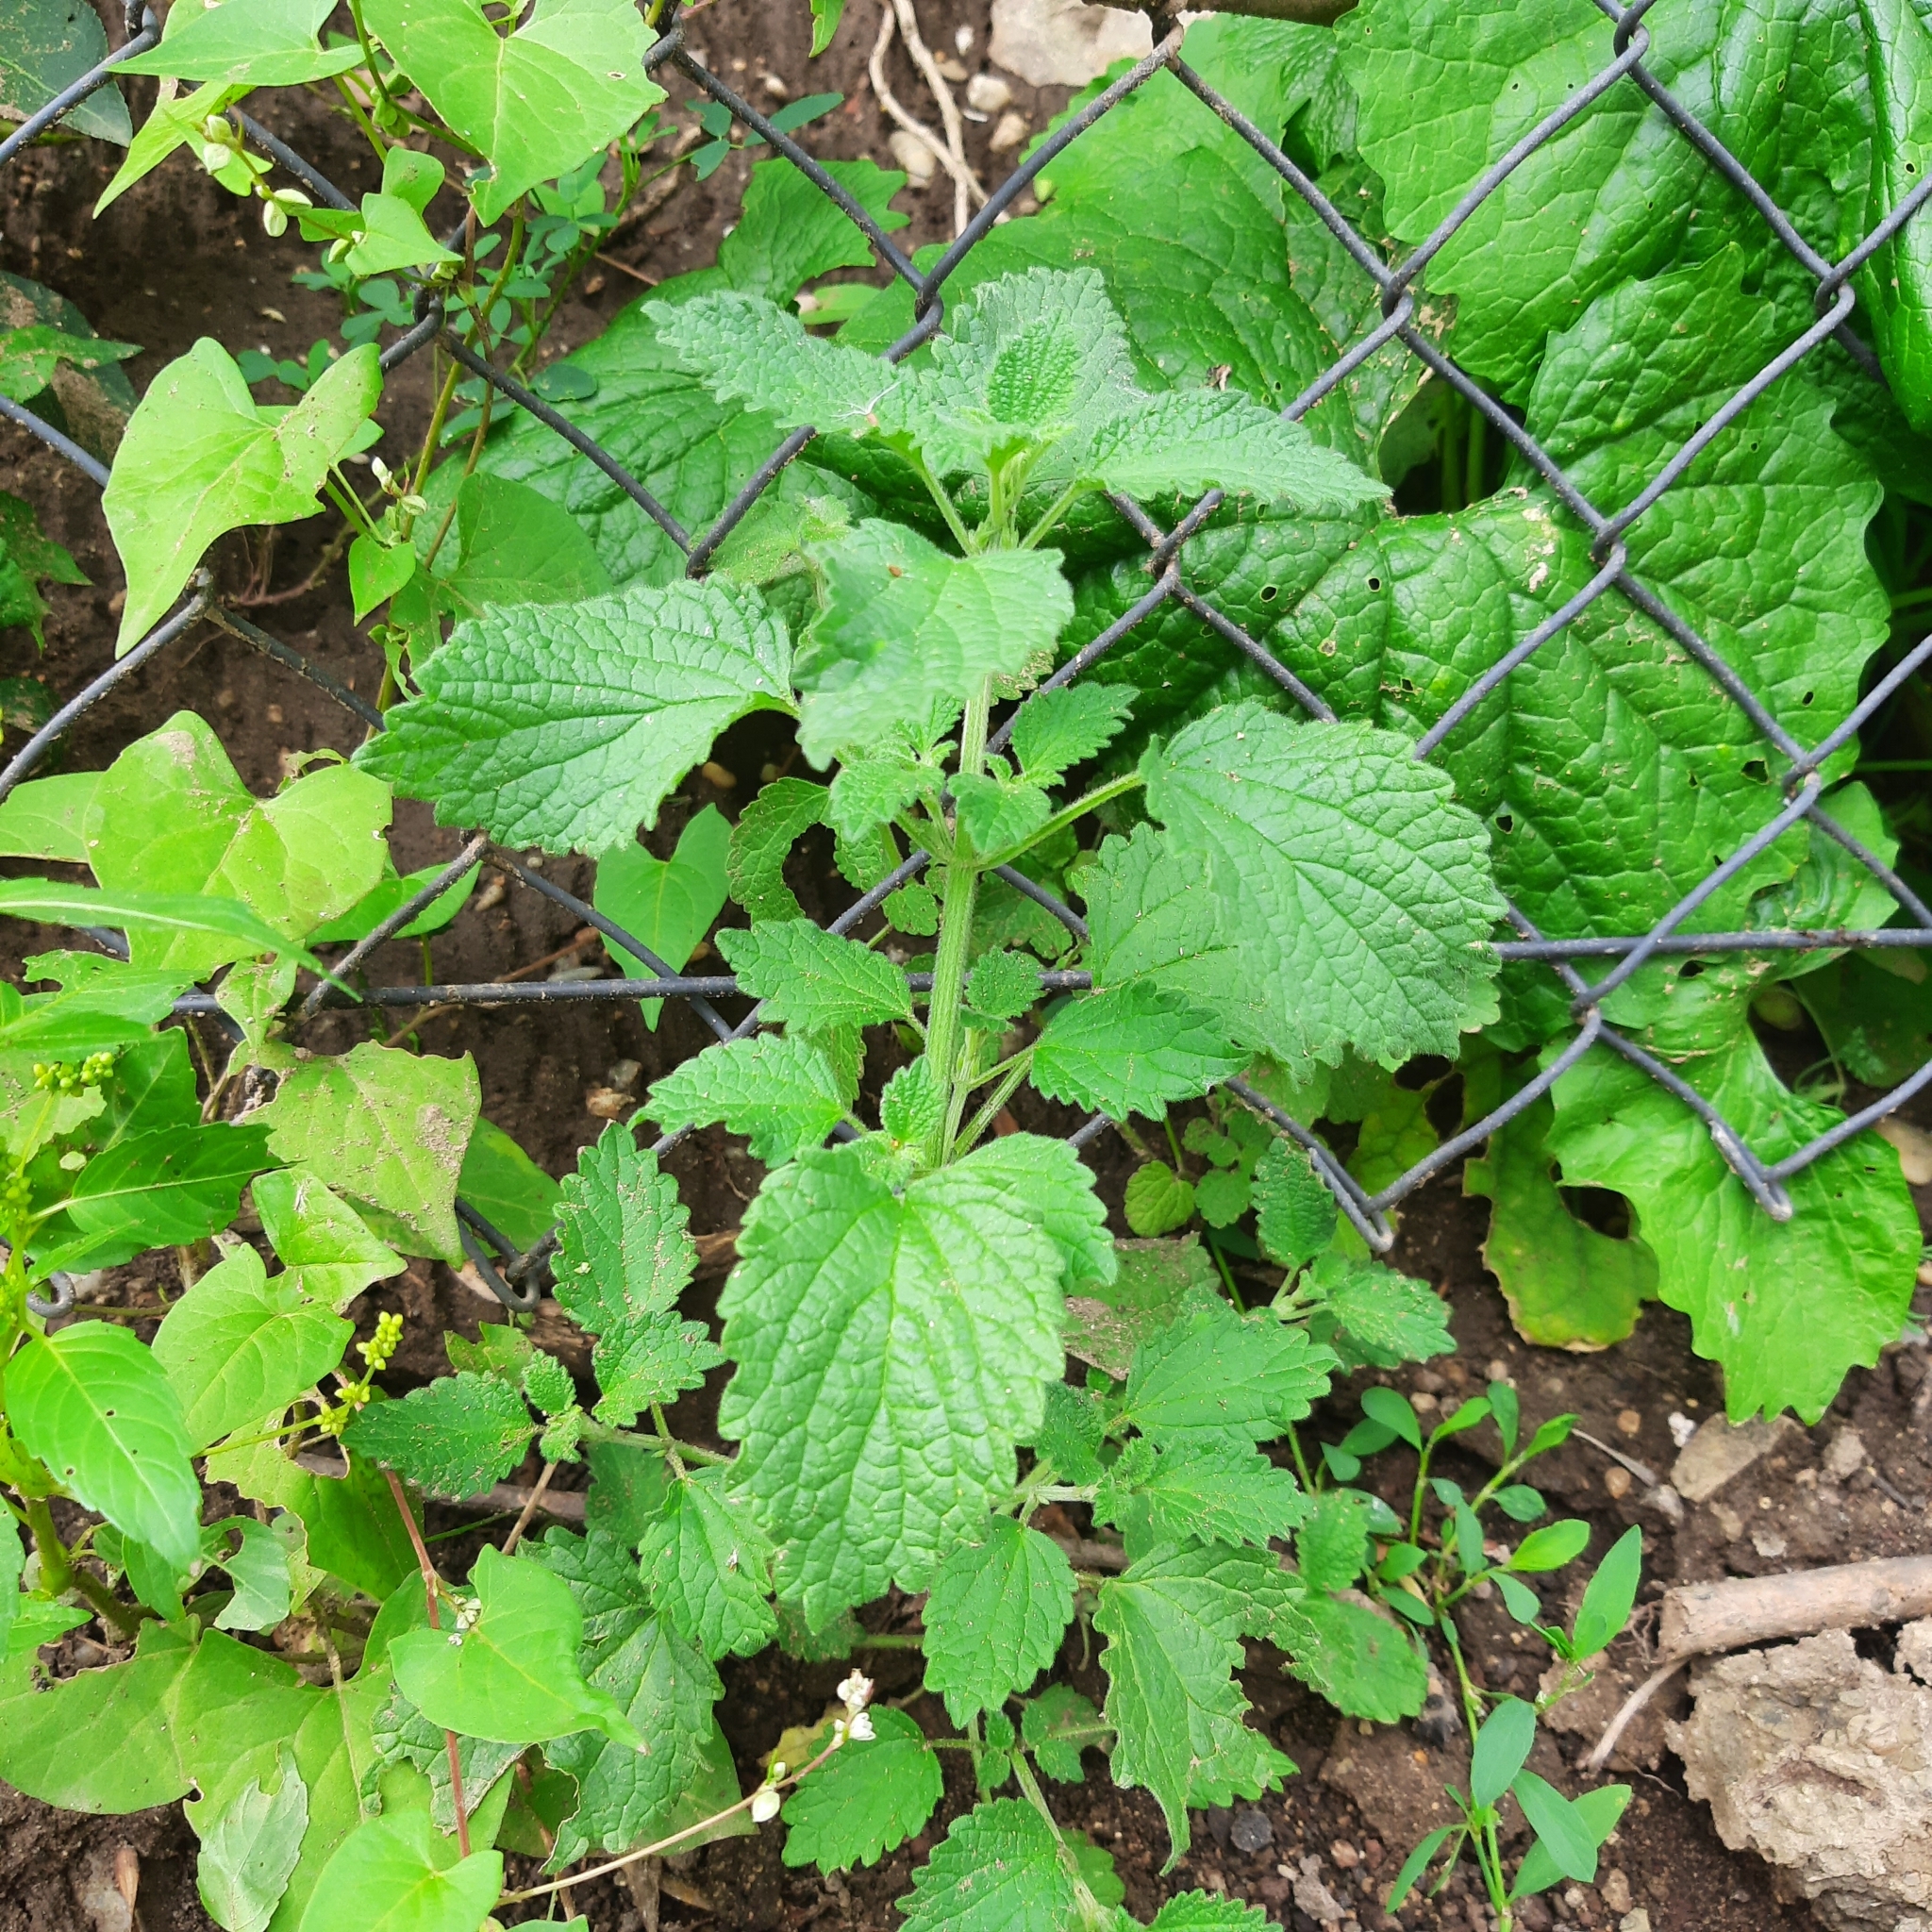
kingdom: Plantae
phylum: Tracheophyta
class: Magnoliopsida
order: Lamiales
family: Lamiaceae
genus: Ballota
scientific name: Ballota nigra
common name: Black horehound
